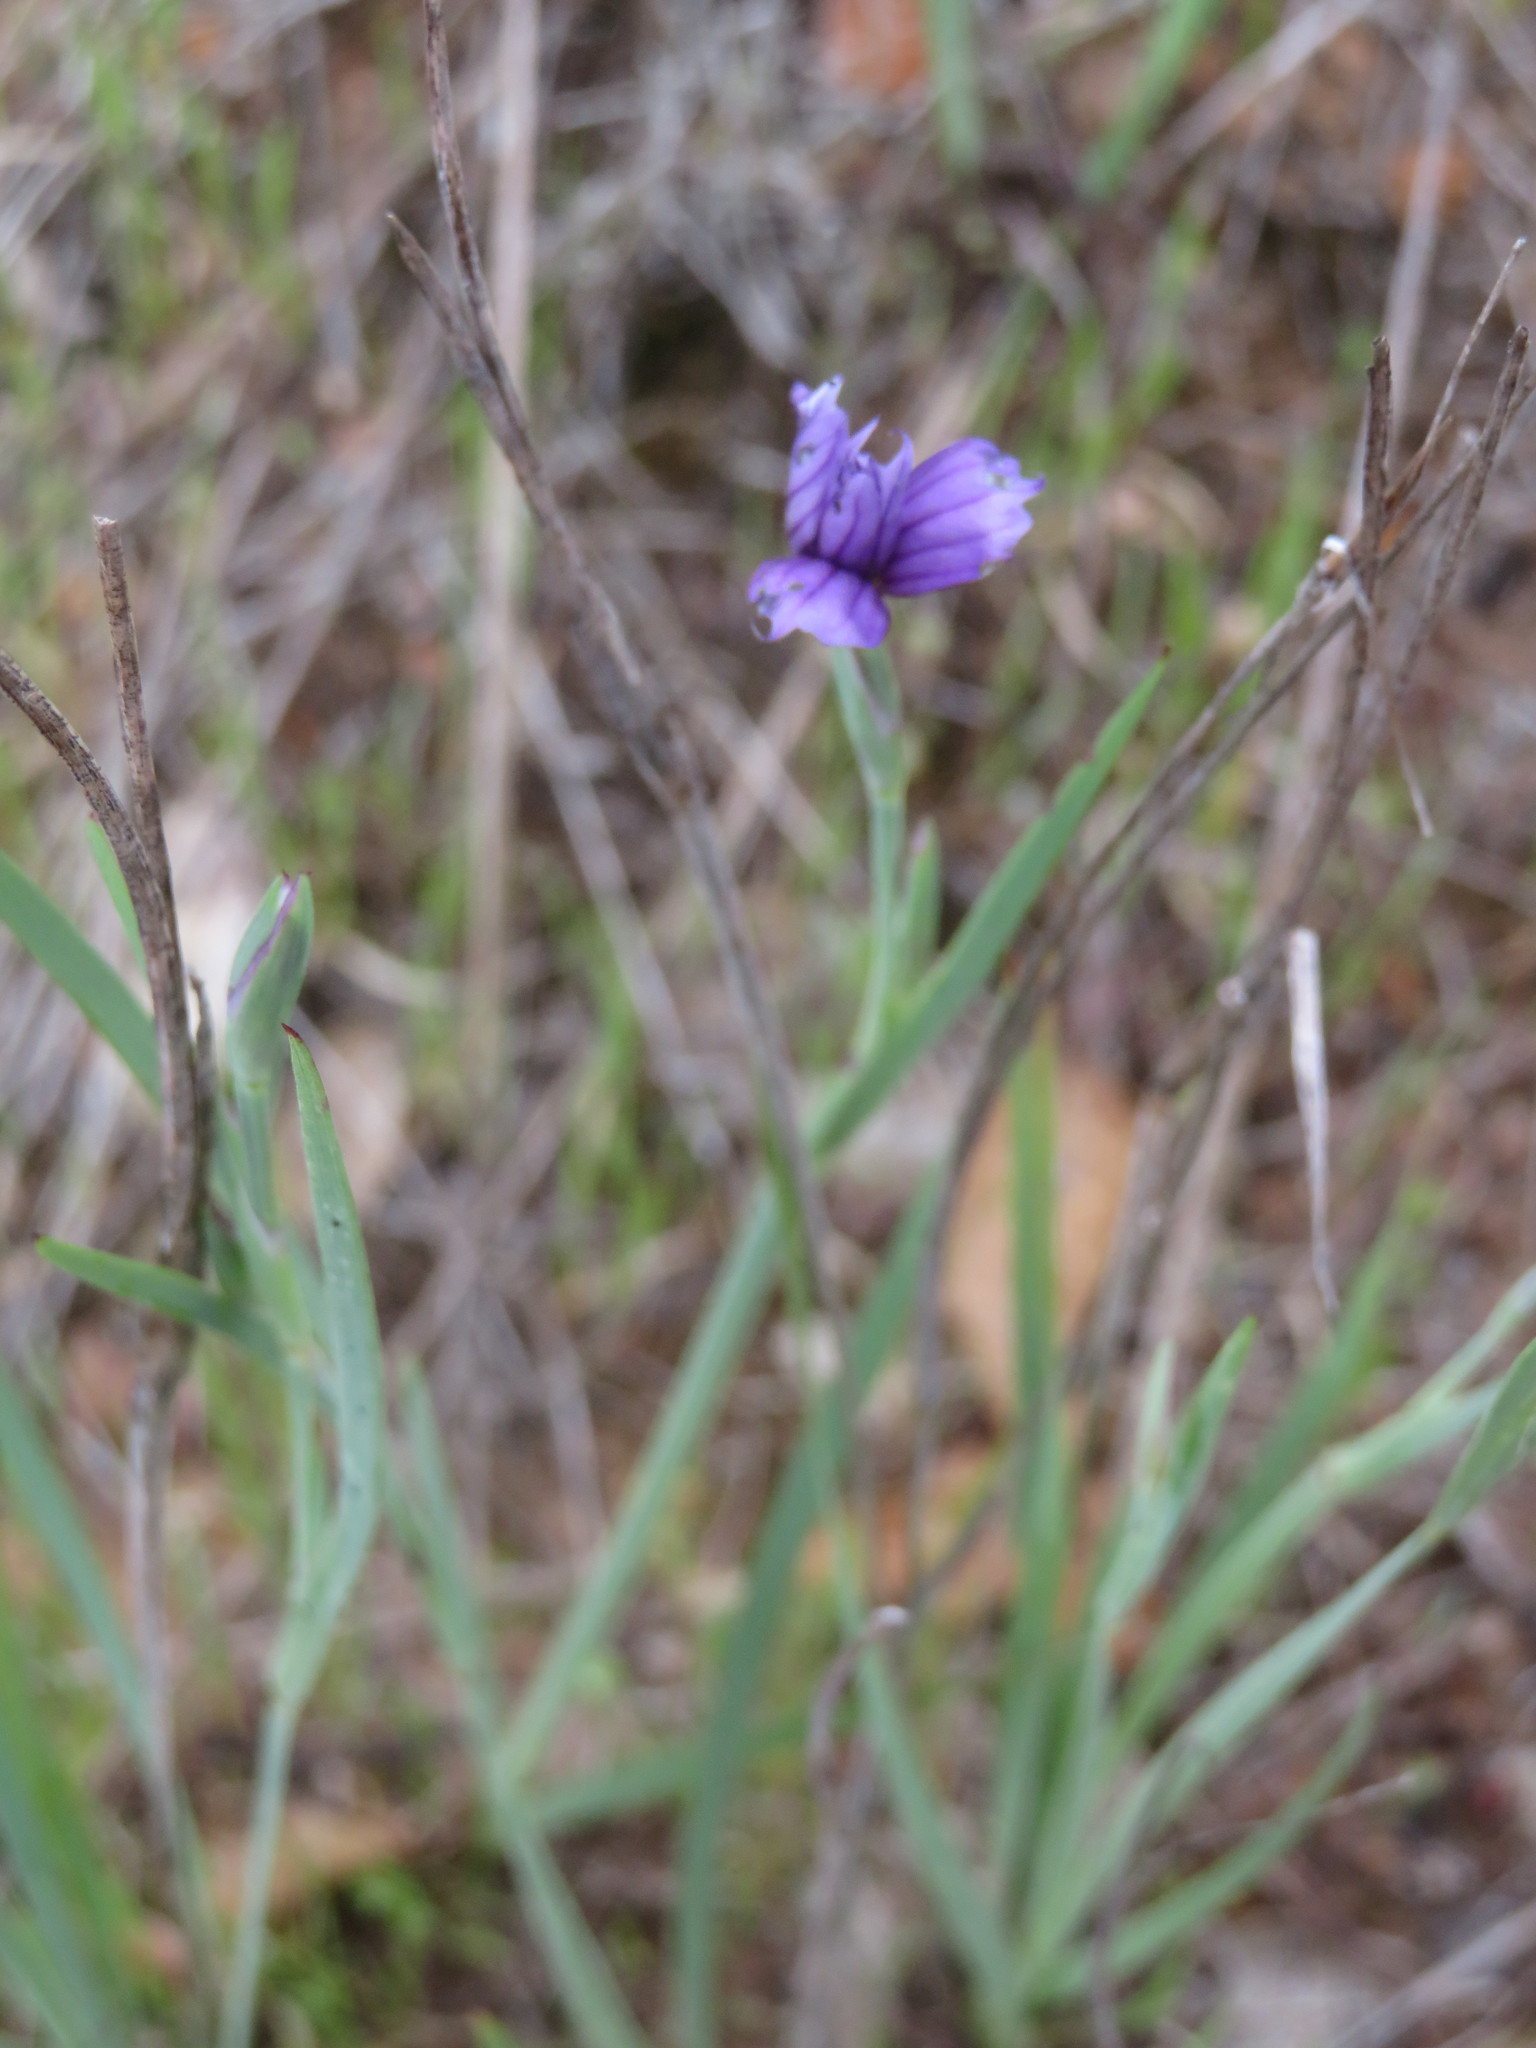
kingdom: Plantae
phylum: Tracheophyta
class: Liliopsida
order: Asparagales
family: Iridaceae
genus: Sisyrinchium
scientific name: Sisyrinchium bellum
